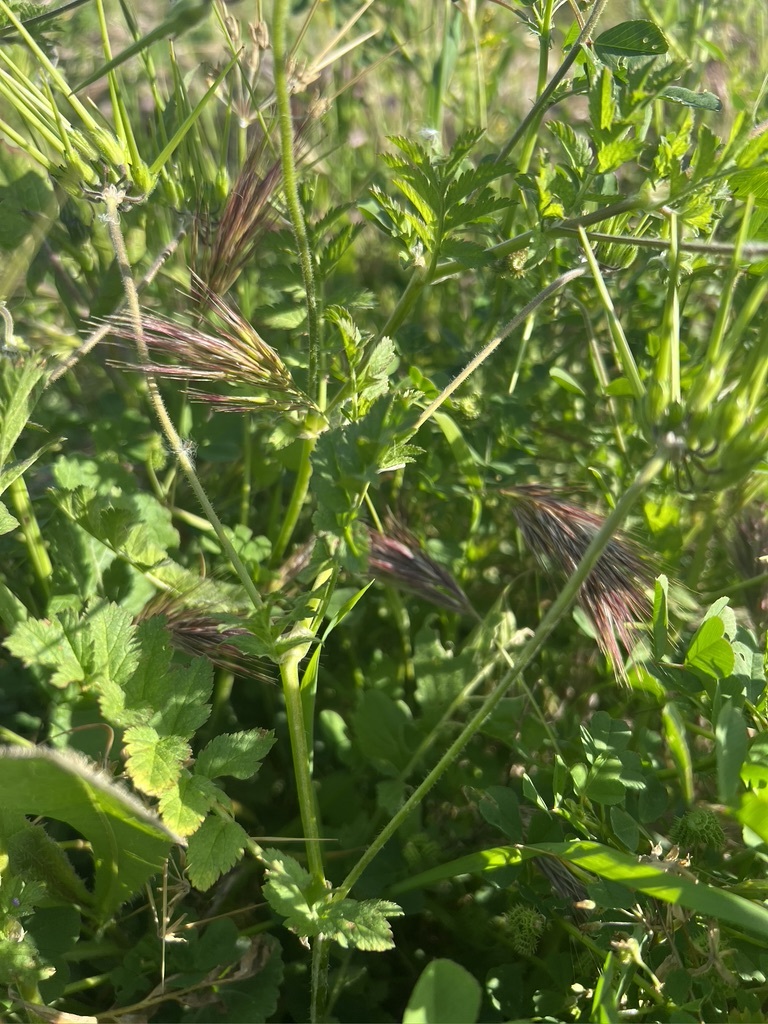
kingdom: Plantae
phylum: Tracheophyta
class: Magnoliopsida
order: Geraniales
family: Geraniaceae
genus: Erodium
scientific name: Erodium moschatum
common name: Musk stork's-bill
